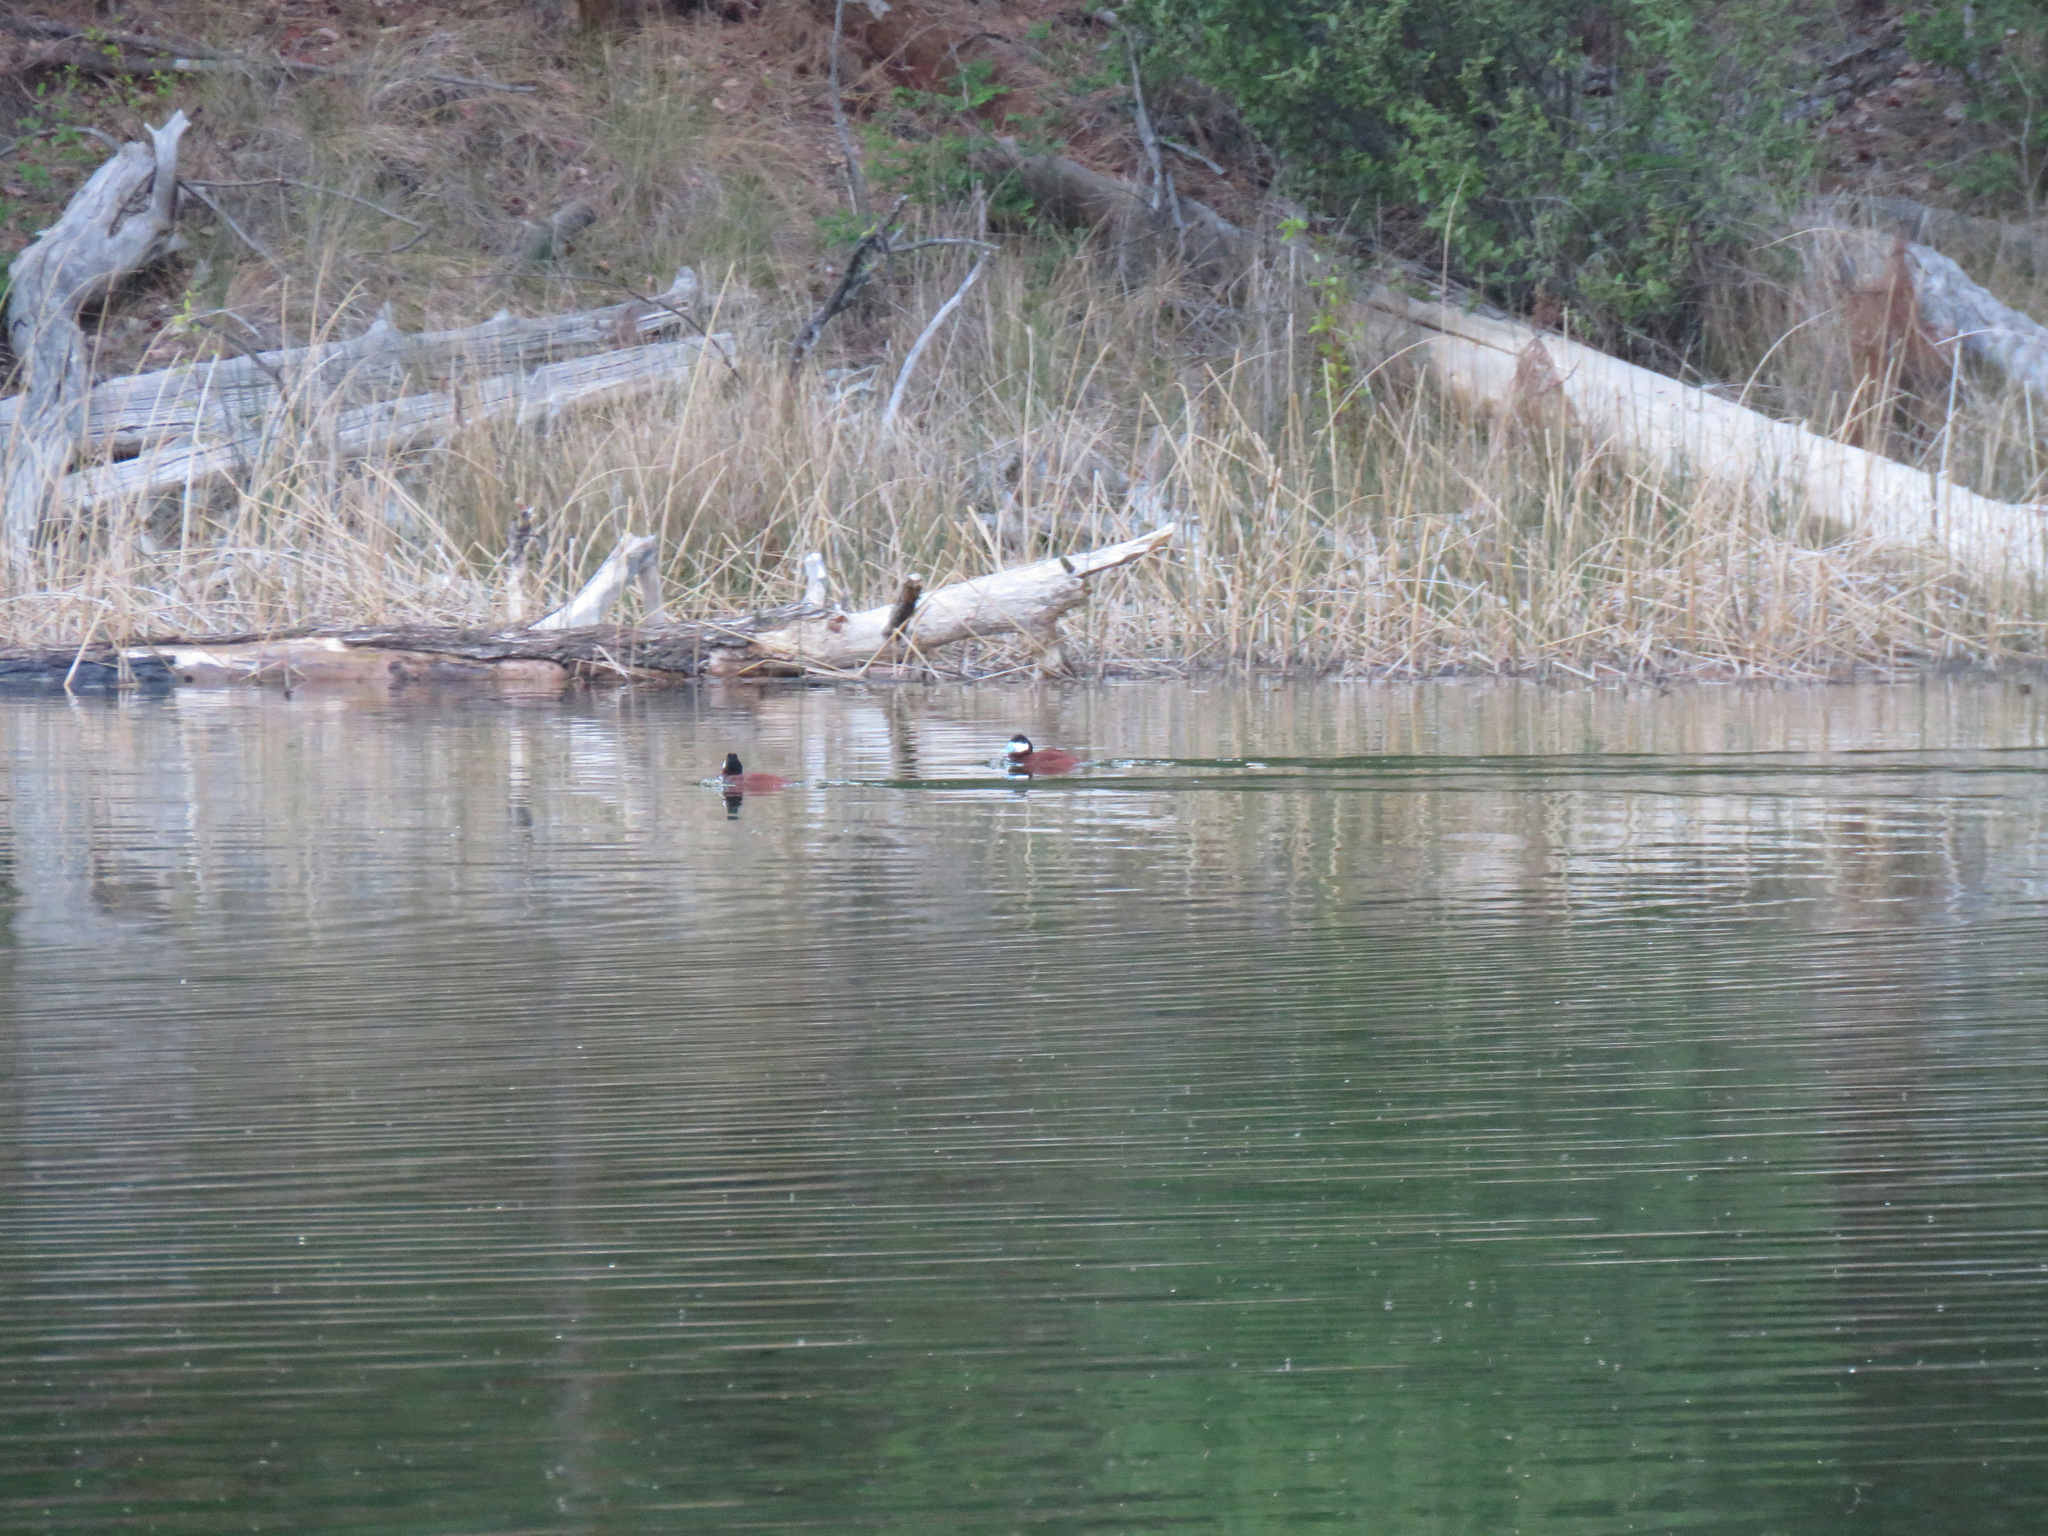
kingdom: Animalia
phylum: Chordata
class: Aves
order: Anseriformes
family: Anatidae
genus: Oxyura
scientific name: Oxyura jamaicensis
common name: Ruddy duck
